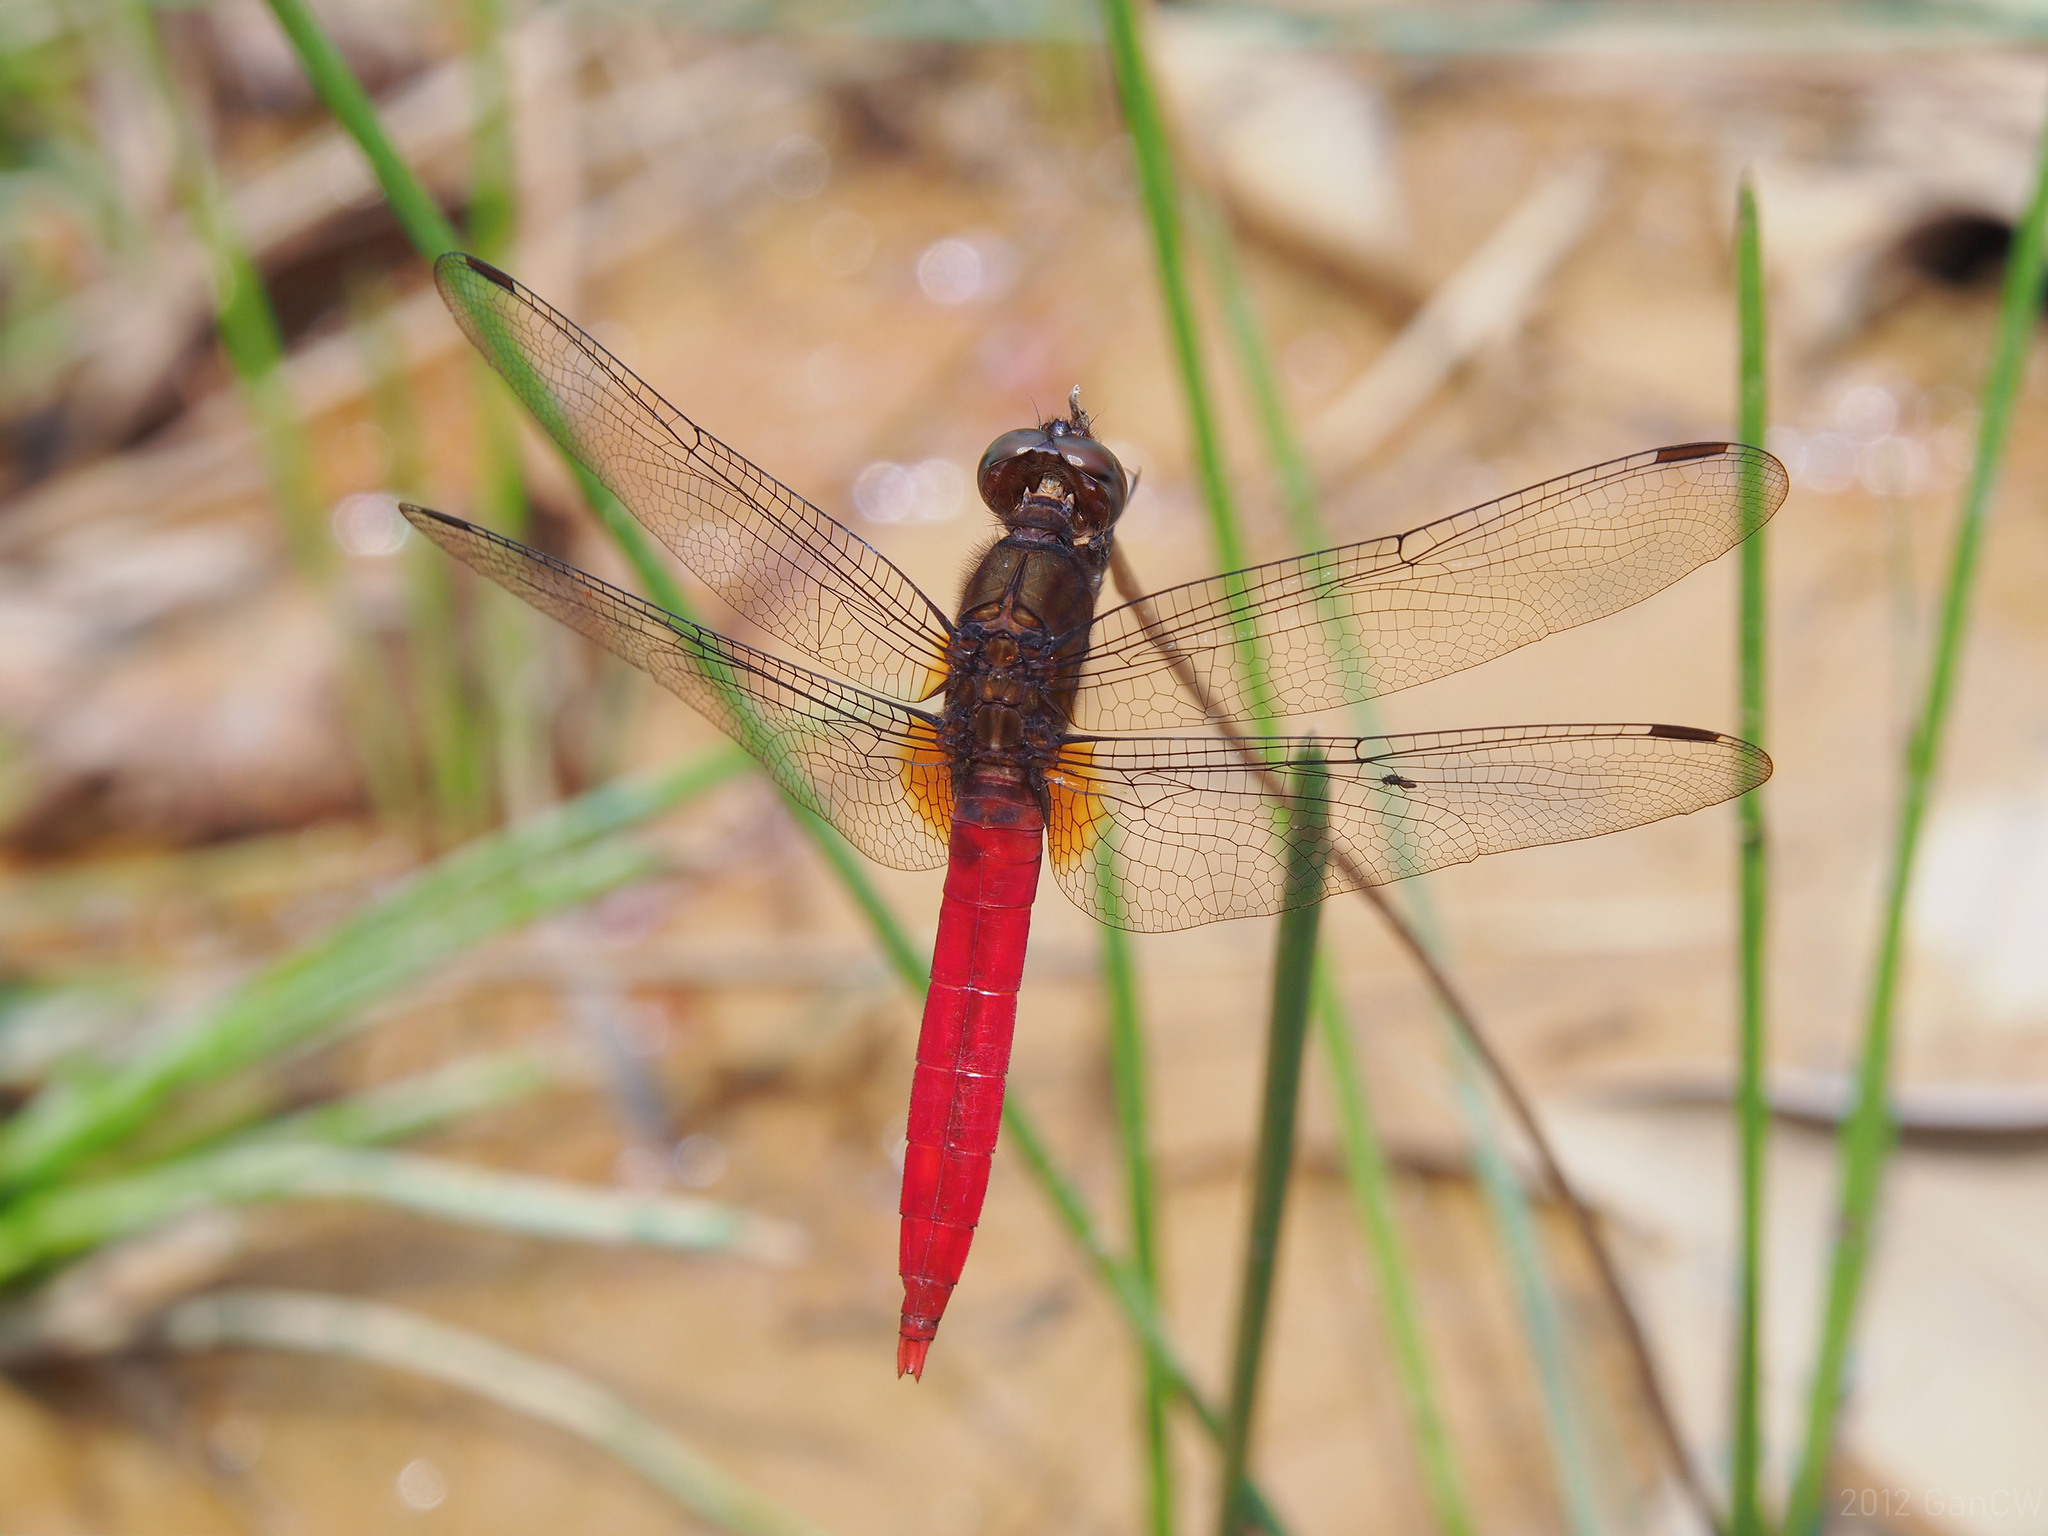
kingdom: Animalia
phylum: Arthropoda
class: Insecta
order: Odonata
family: Libellulidae
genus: Orthetrum
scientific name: Orthetrum chrysis
